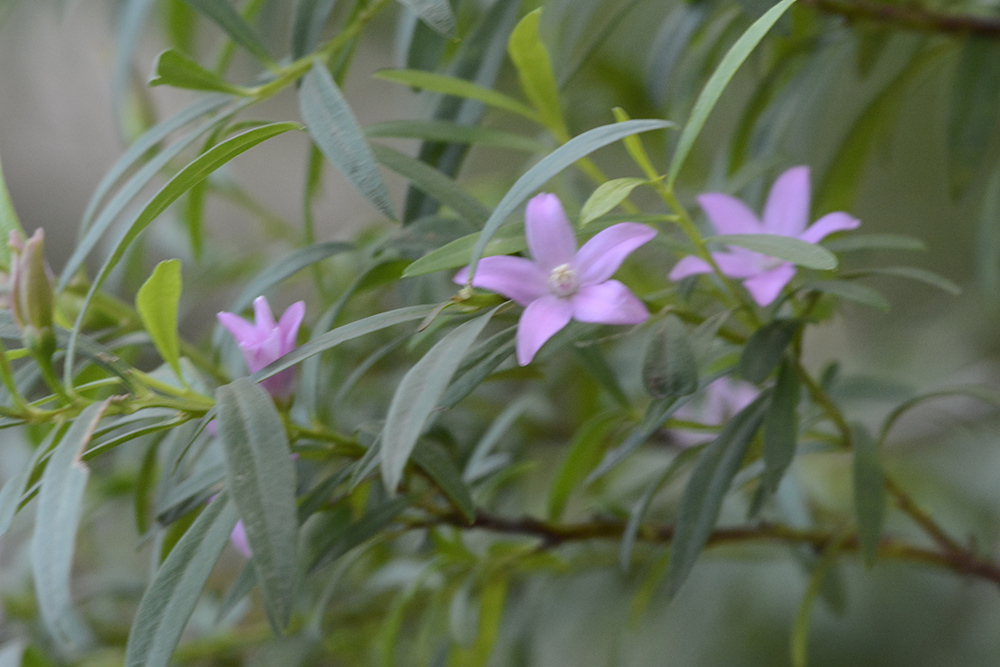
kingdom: Plantae
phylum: Tracheophyta
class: Magnoliopsida
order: Sapindales
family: Rutaceae
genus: Crowea
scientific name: Crowea saligna
